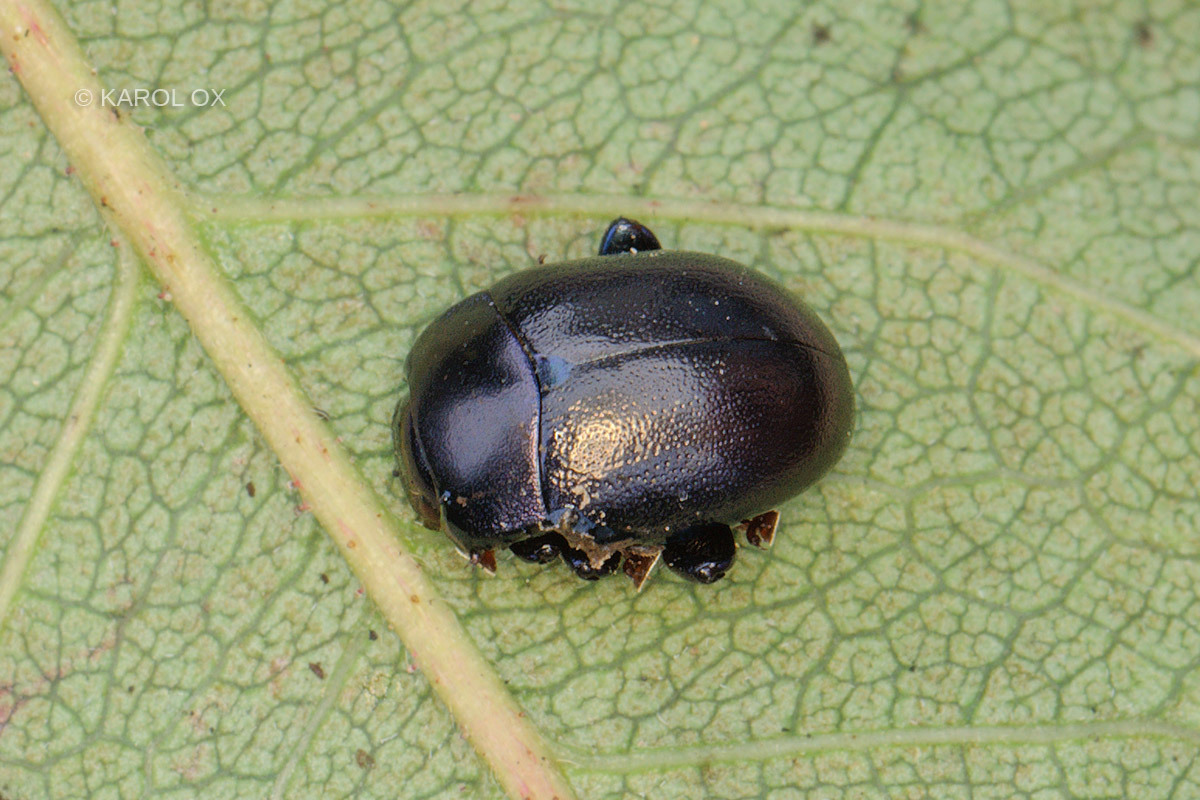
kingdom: Animalia
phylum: Arthropoda
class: Insecta
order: Coleoptera
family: Chrysomelidae
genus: Chrysolina
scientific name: Chrysolina sturmi
